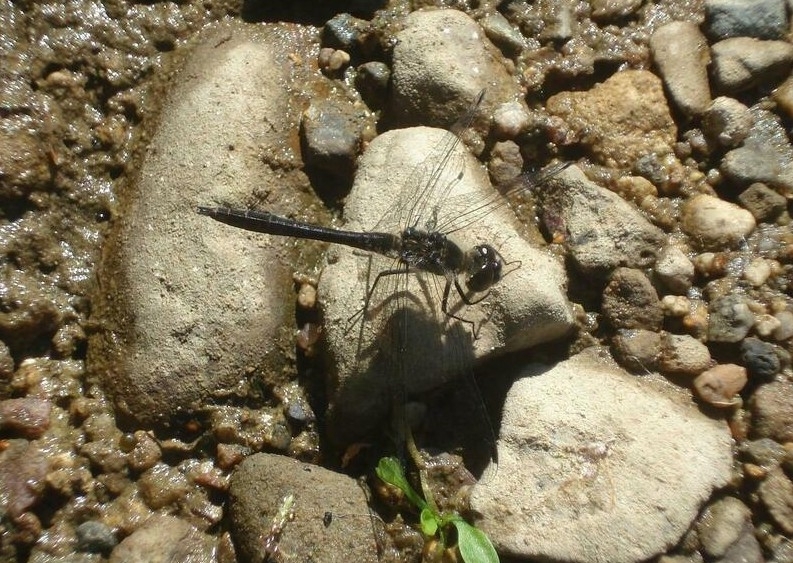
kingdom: Animalia
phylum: Arthropoda
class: Insecta
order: Odonata
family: Libellulidae
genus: Sympetrum
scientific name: Sympetrum danae
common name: Black darter
